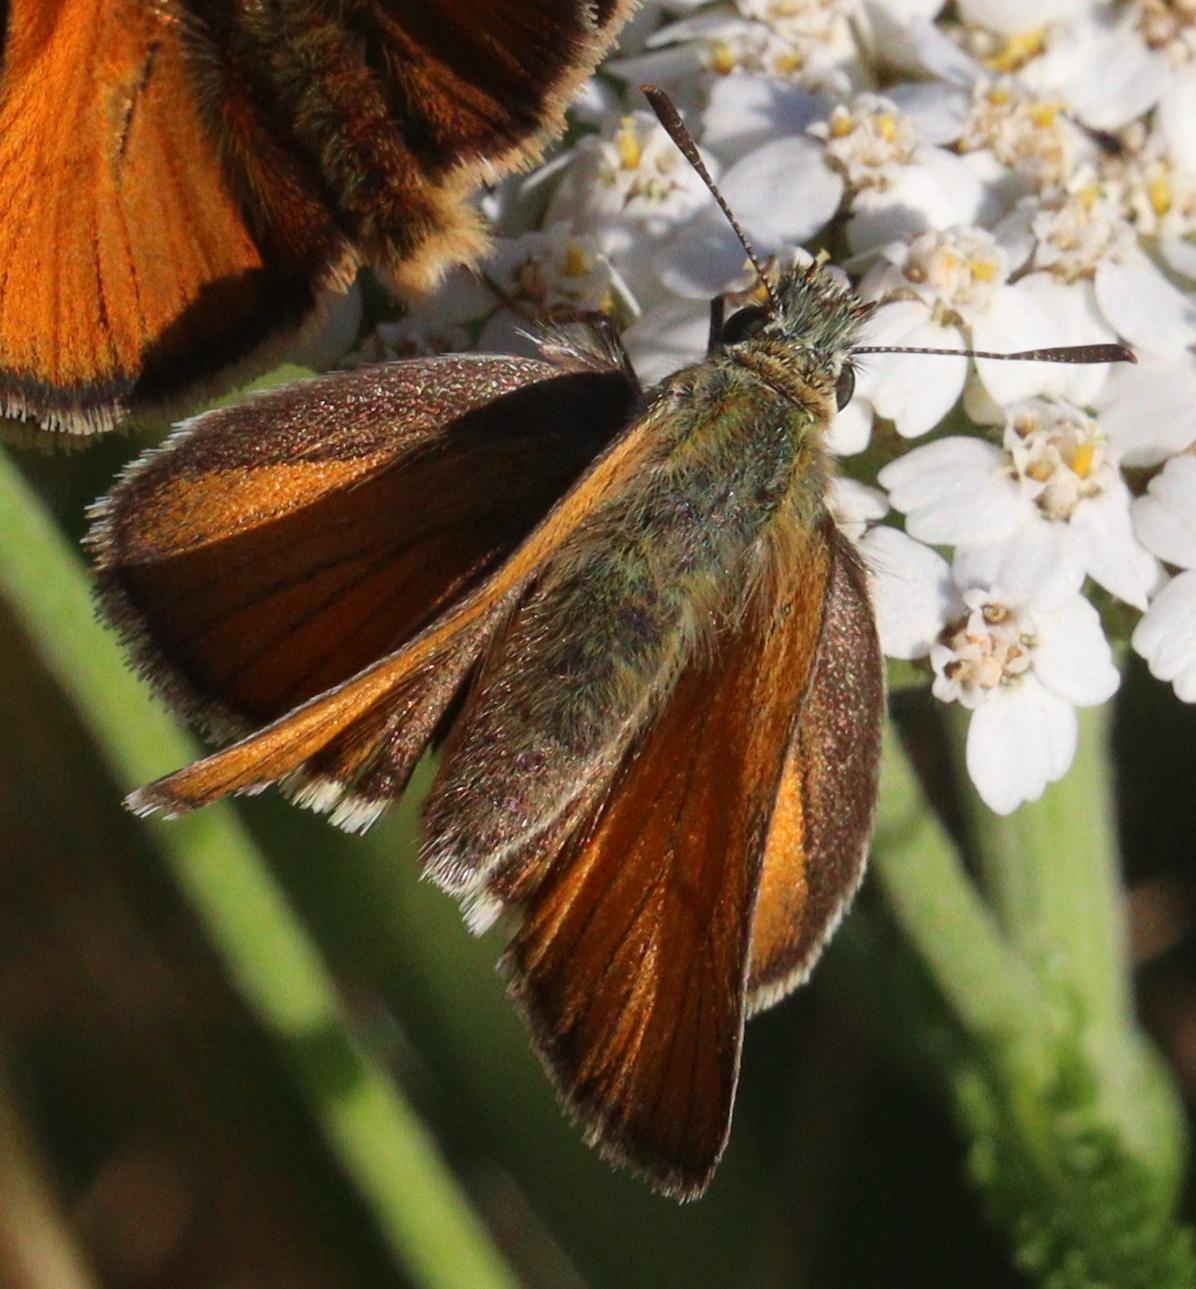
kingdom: Animalia
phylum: Arthropoda
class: Insecta
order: Lepidoptera
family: Hesperiidae
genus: Thymelicus
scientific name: Thymelicus sylvestris
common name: Small skipper
